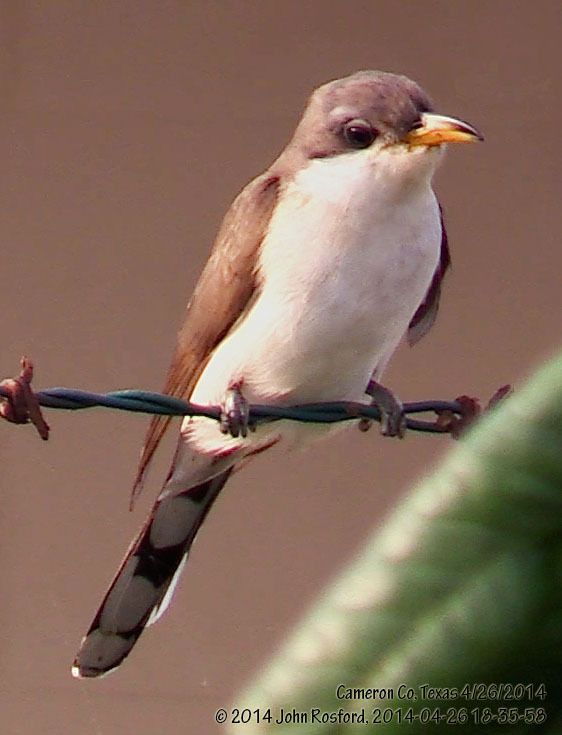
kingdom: Animalia
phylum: Chordata
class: Aves
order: Cuculiformes
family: Cuculidae
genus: Coccyzus
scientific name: Coccyzus americanus
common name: Yellow-billed cuckoo
